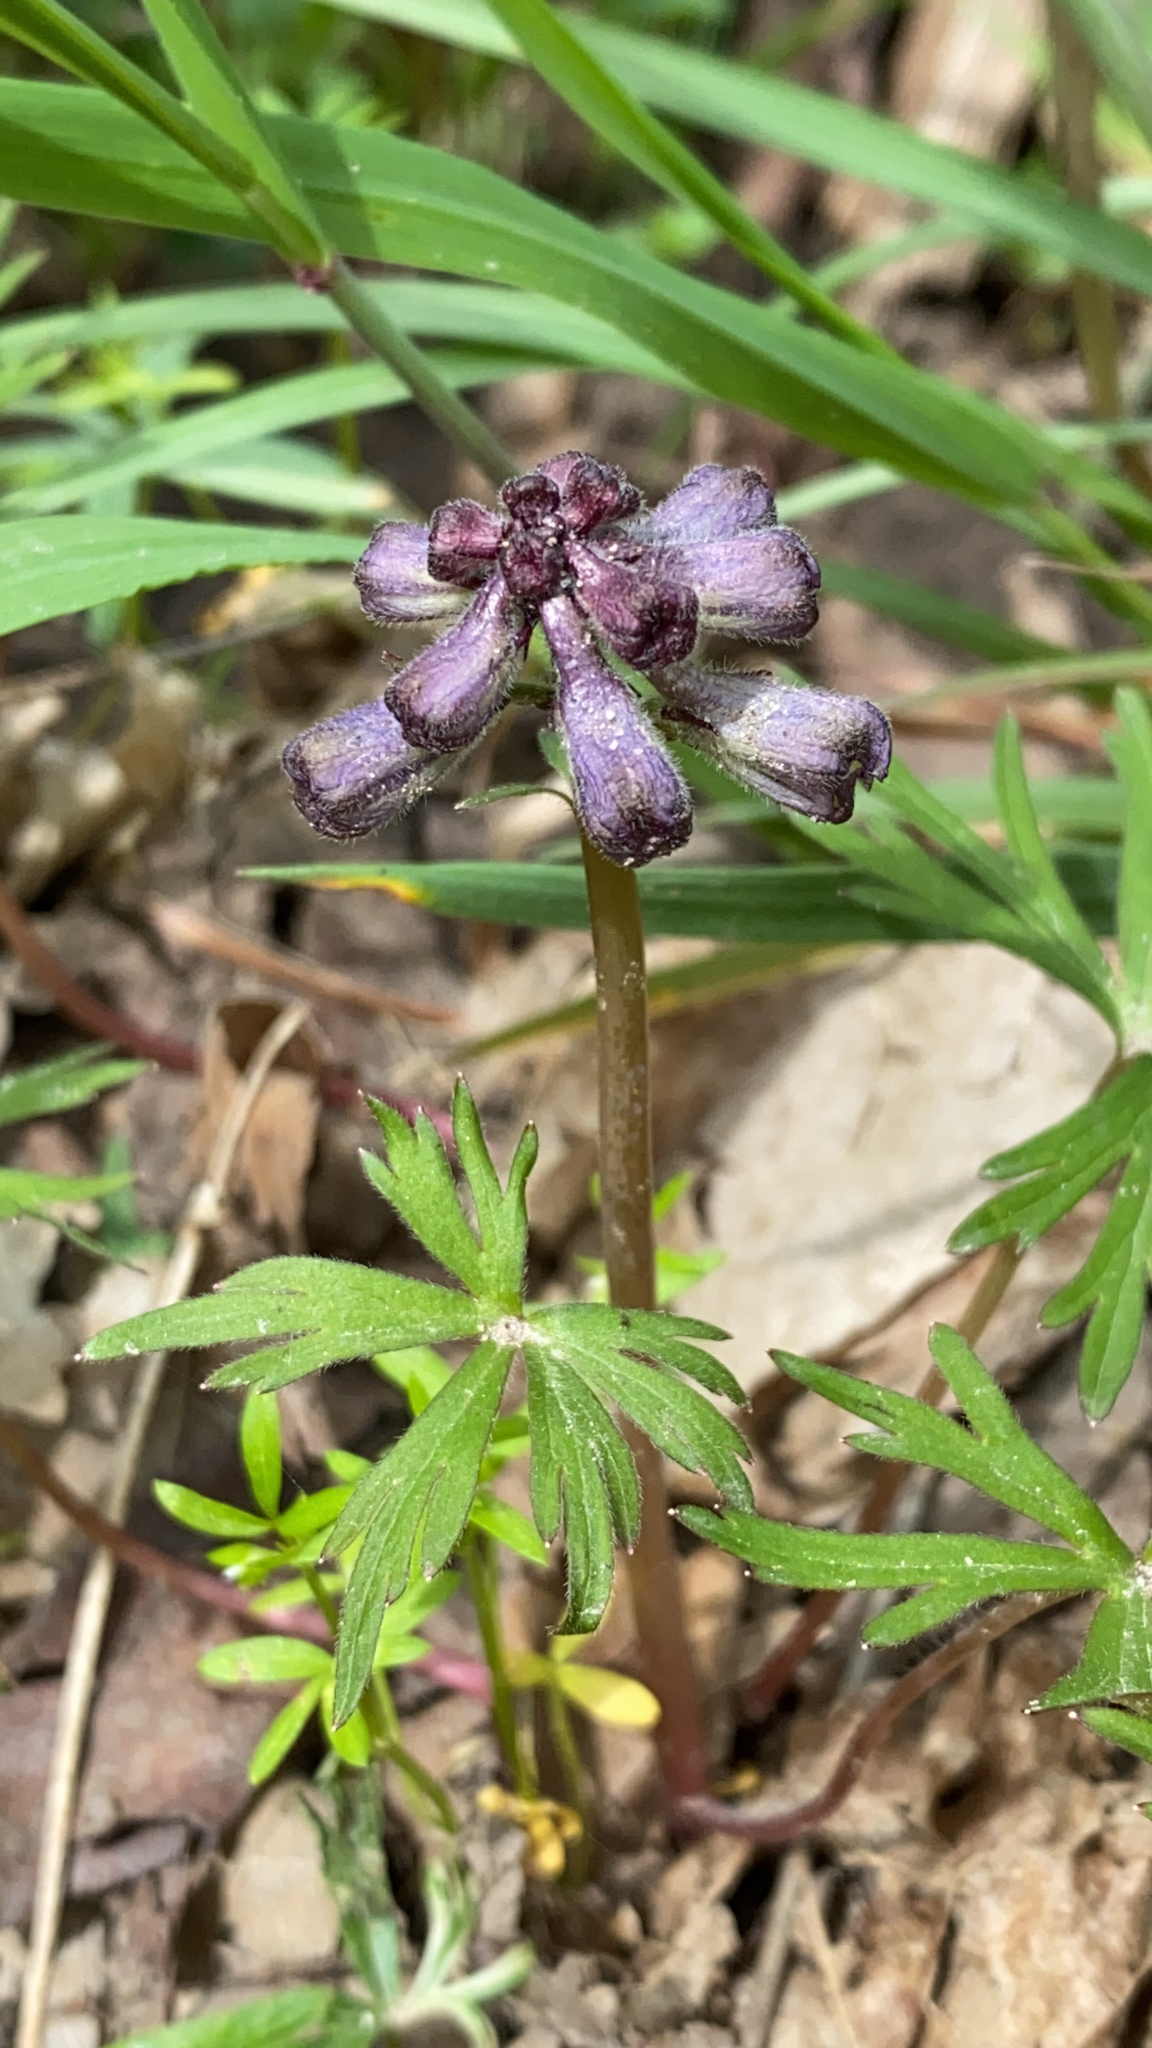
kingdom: Plantae
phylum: Tracheophyta
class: Magnoliopsida
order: Ranunculales
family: Ranunculaceae
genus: Delphinium
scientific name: Delphinium tricorne
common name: Dwarf larkspur
